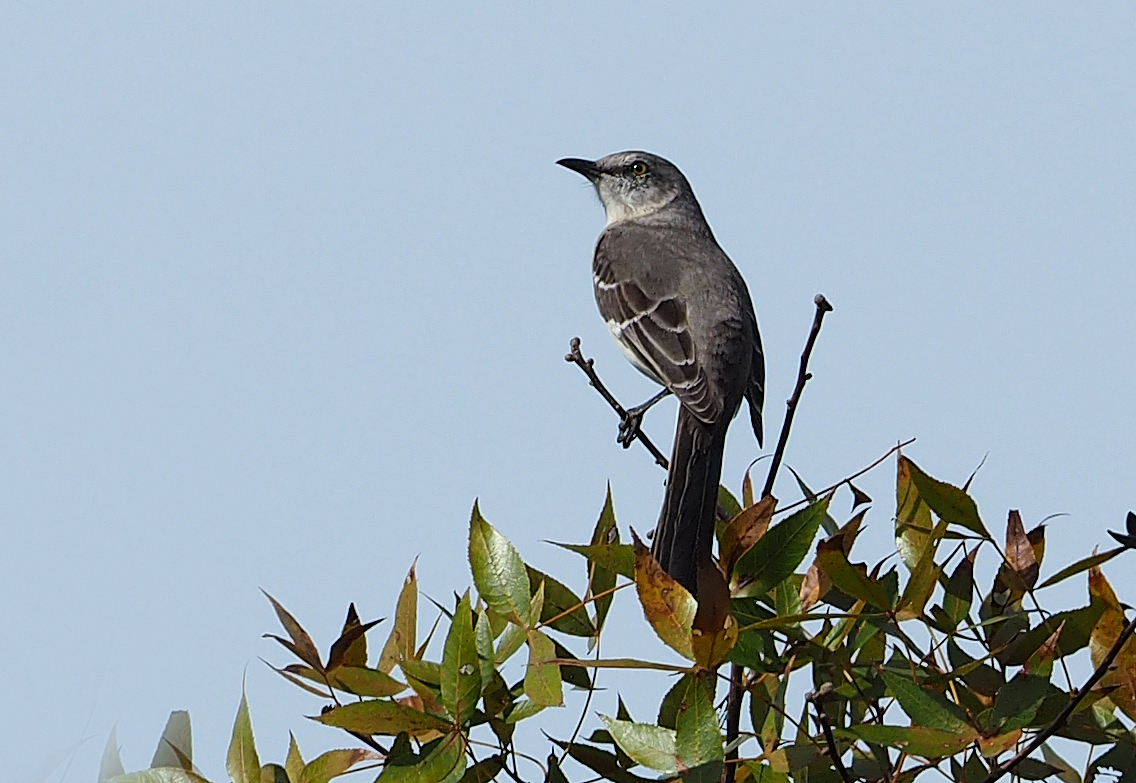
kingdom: Animalia
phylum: Chordata
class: Aves
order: Passeriformes
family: Mimidae
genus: Mimus
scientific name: Mimus polyglottos
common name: Northern mockingbird
